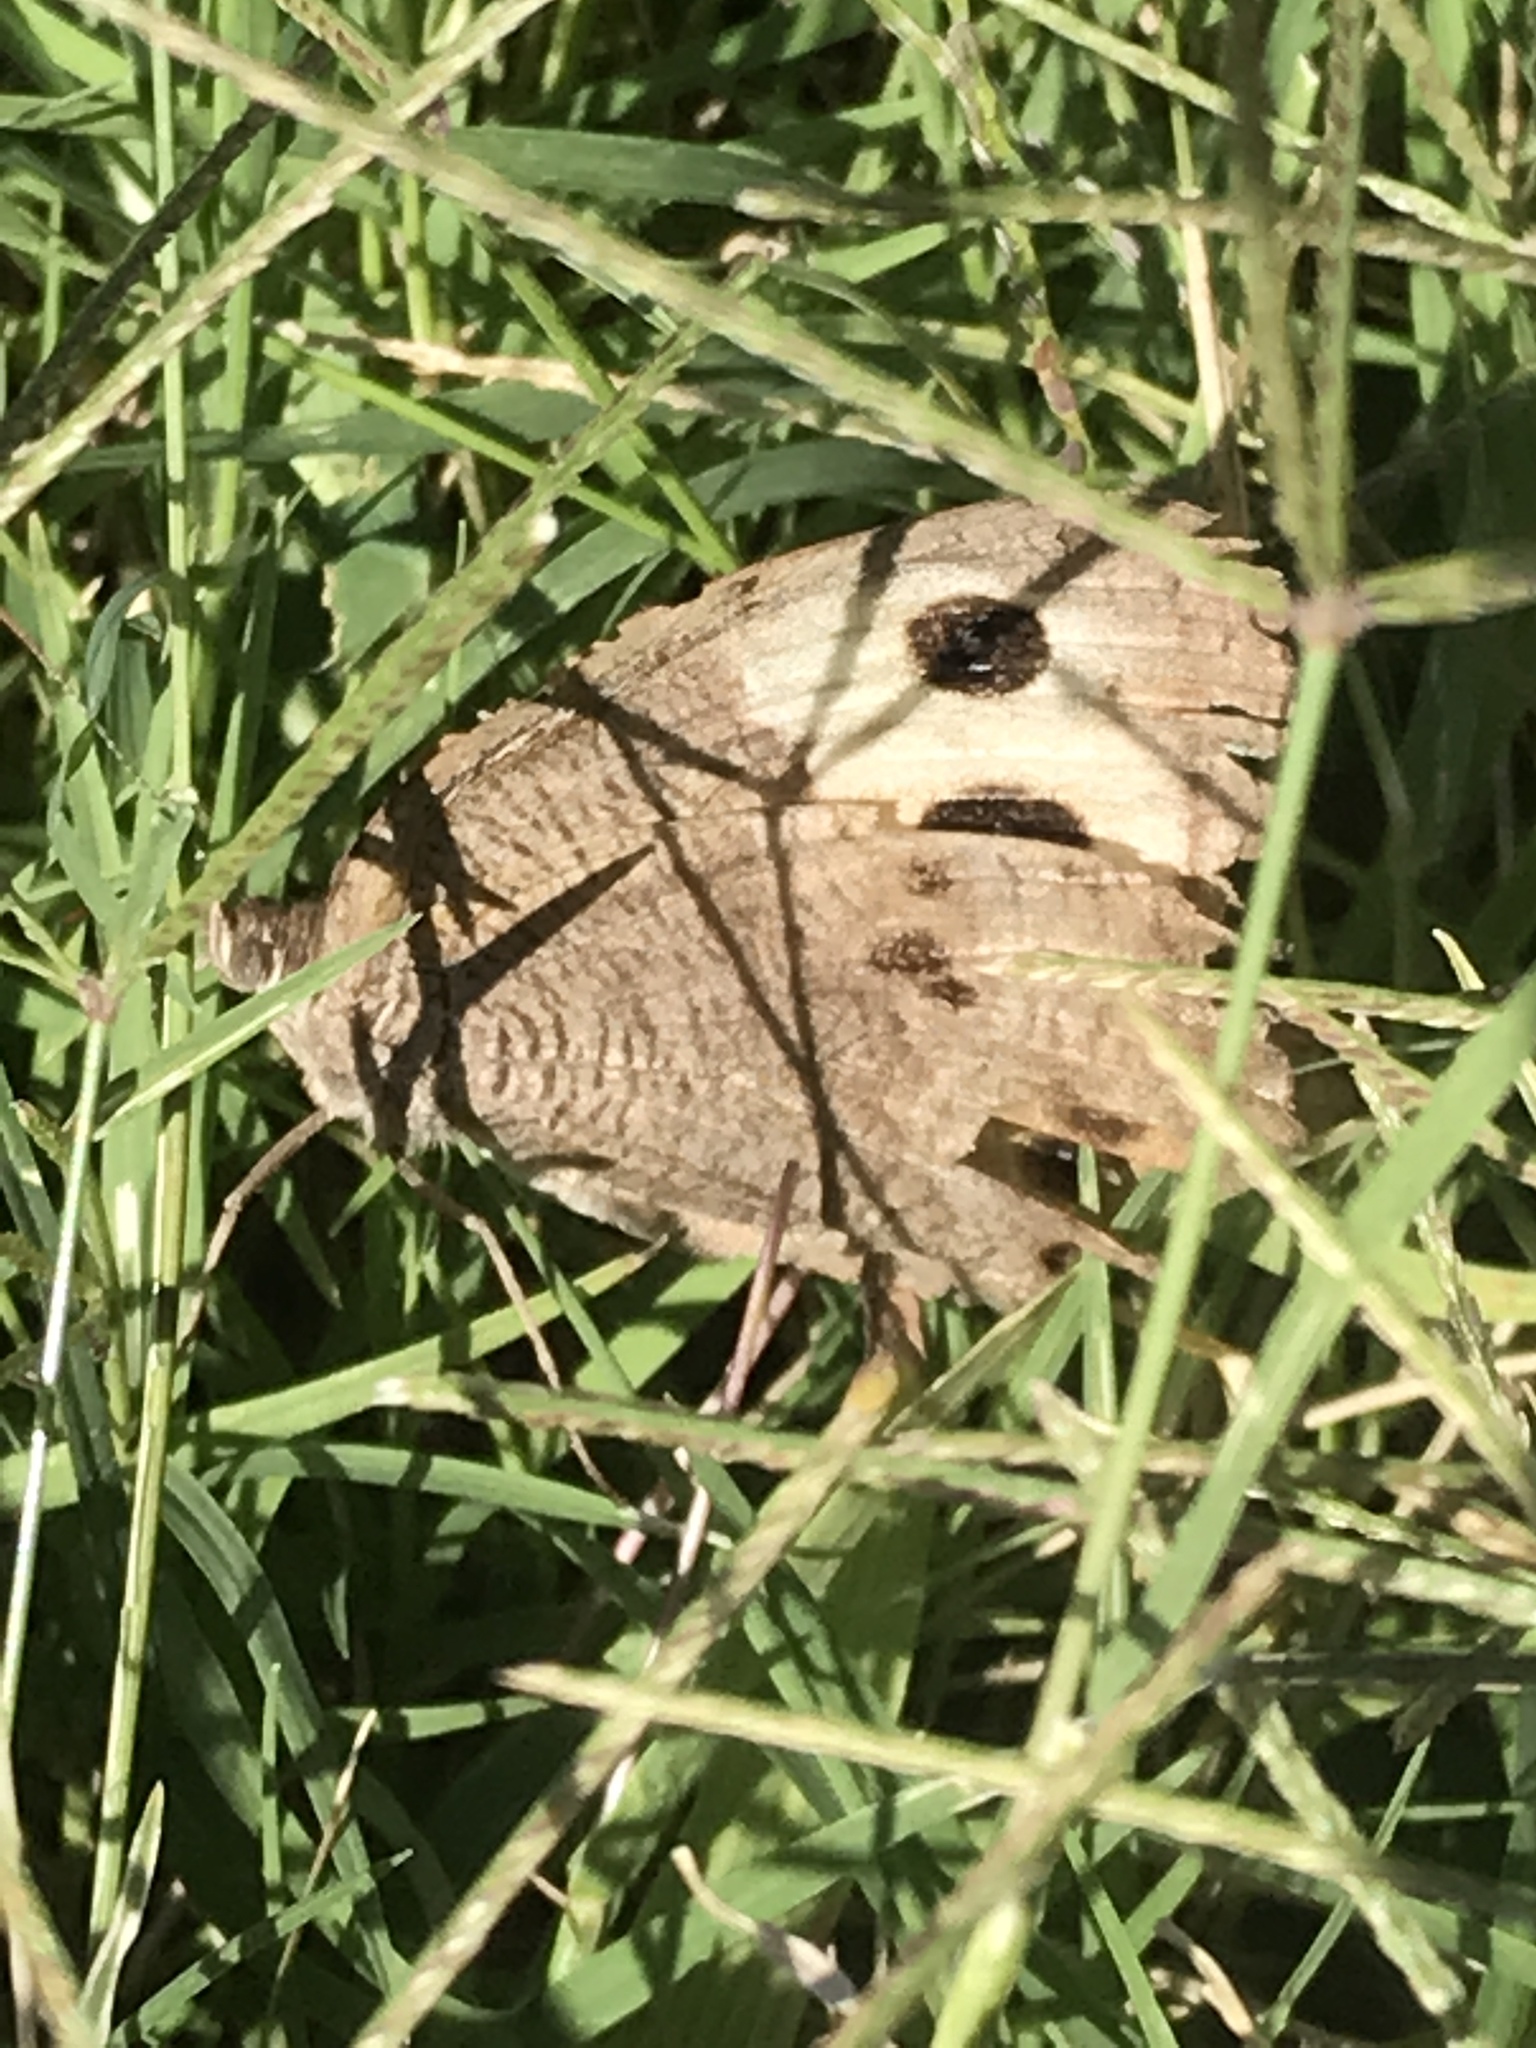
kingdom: Animalia
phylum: Arthropoda
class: Insecta
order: Lepidoptera
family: Nymphalidae
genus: Cercyonis
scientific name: Cercyonis pegala
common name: Common wood-nymph
